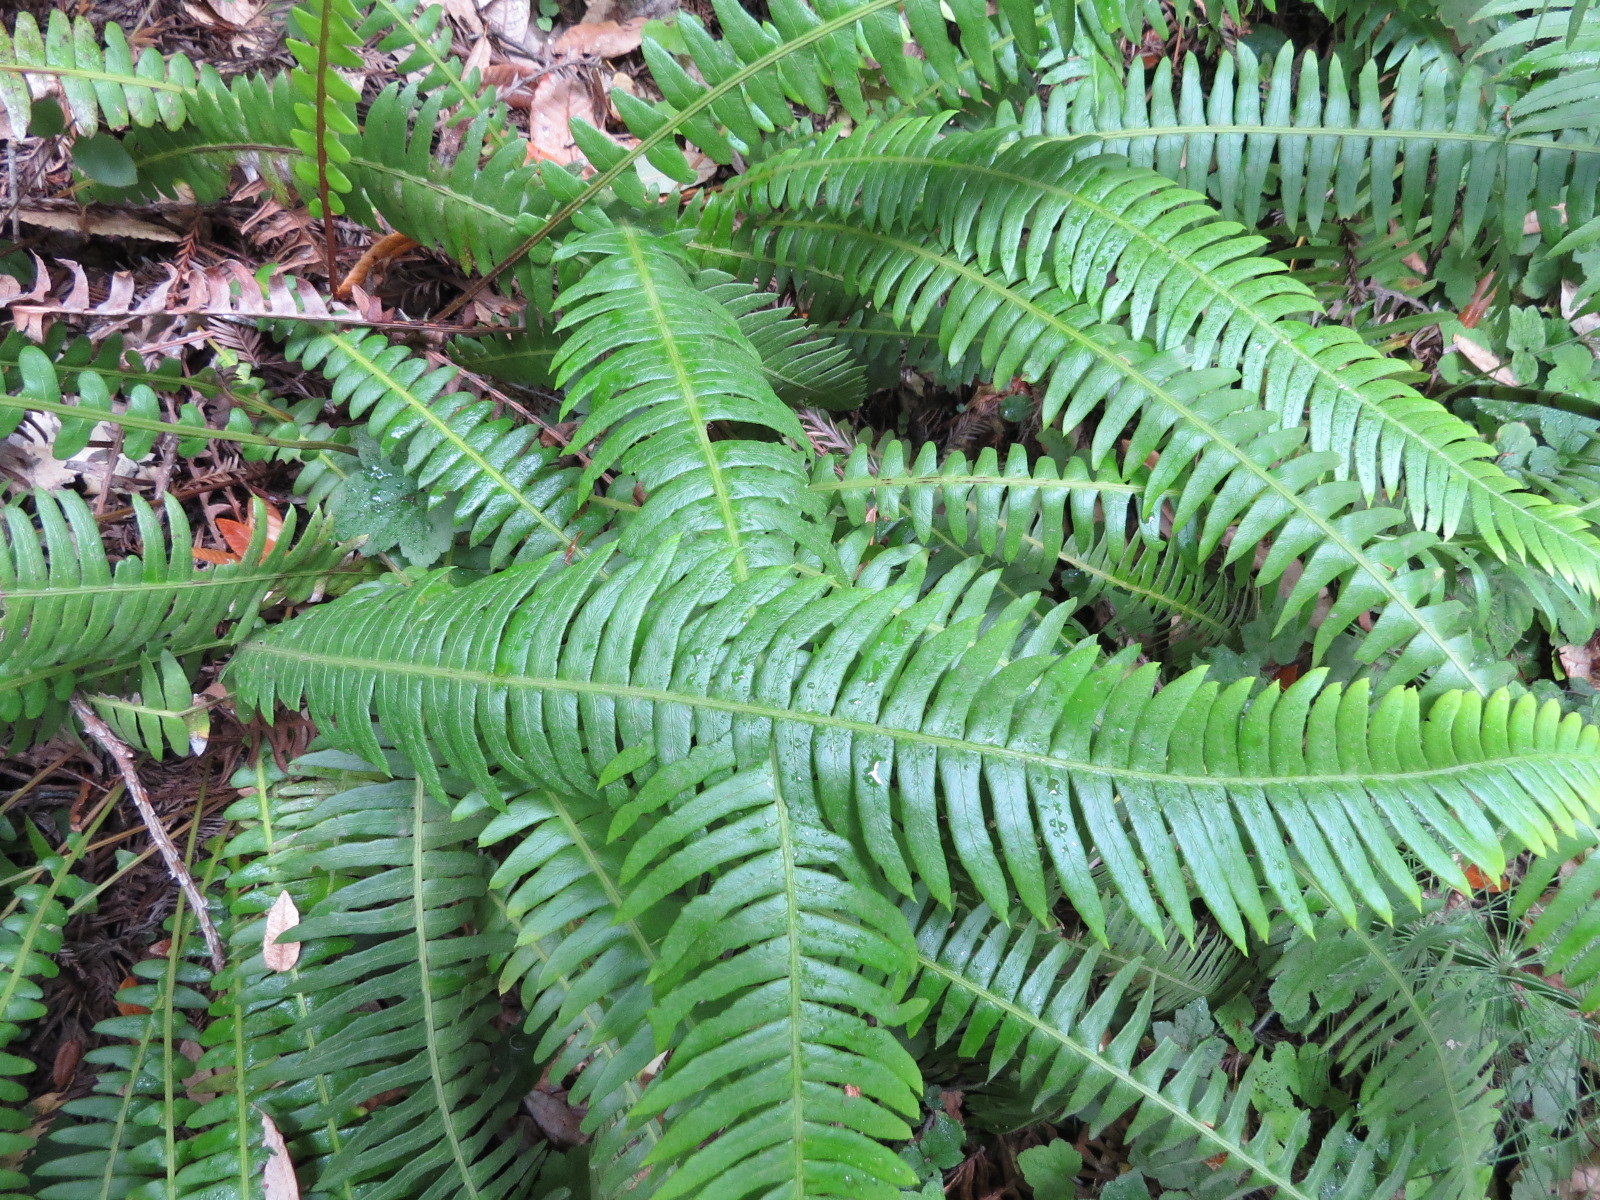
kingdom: Plantae
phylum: Tracheophyta
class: Polypodiopsida
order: Polypodiales
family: Blechnaceae
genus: Struthiopteris
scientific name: Struthiopteris spicant
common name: Deer fern
